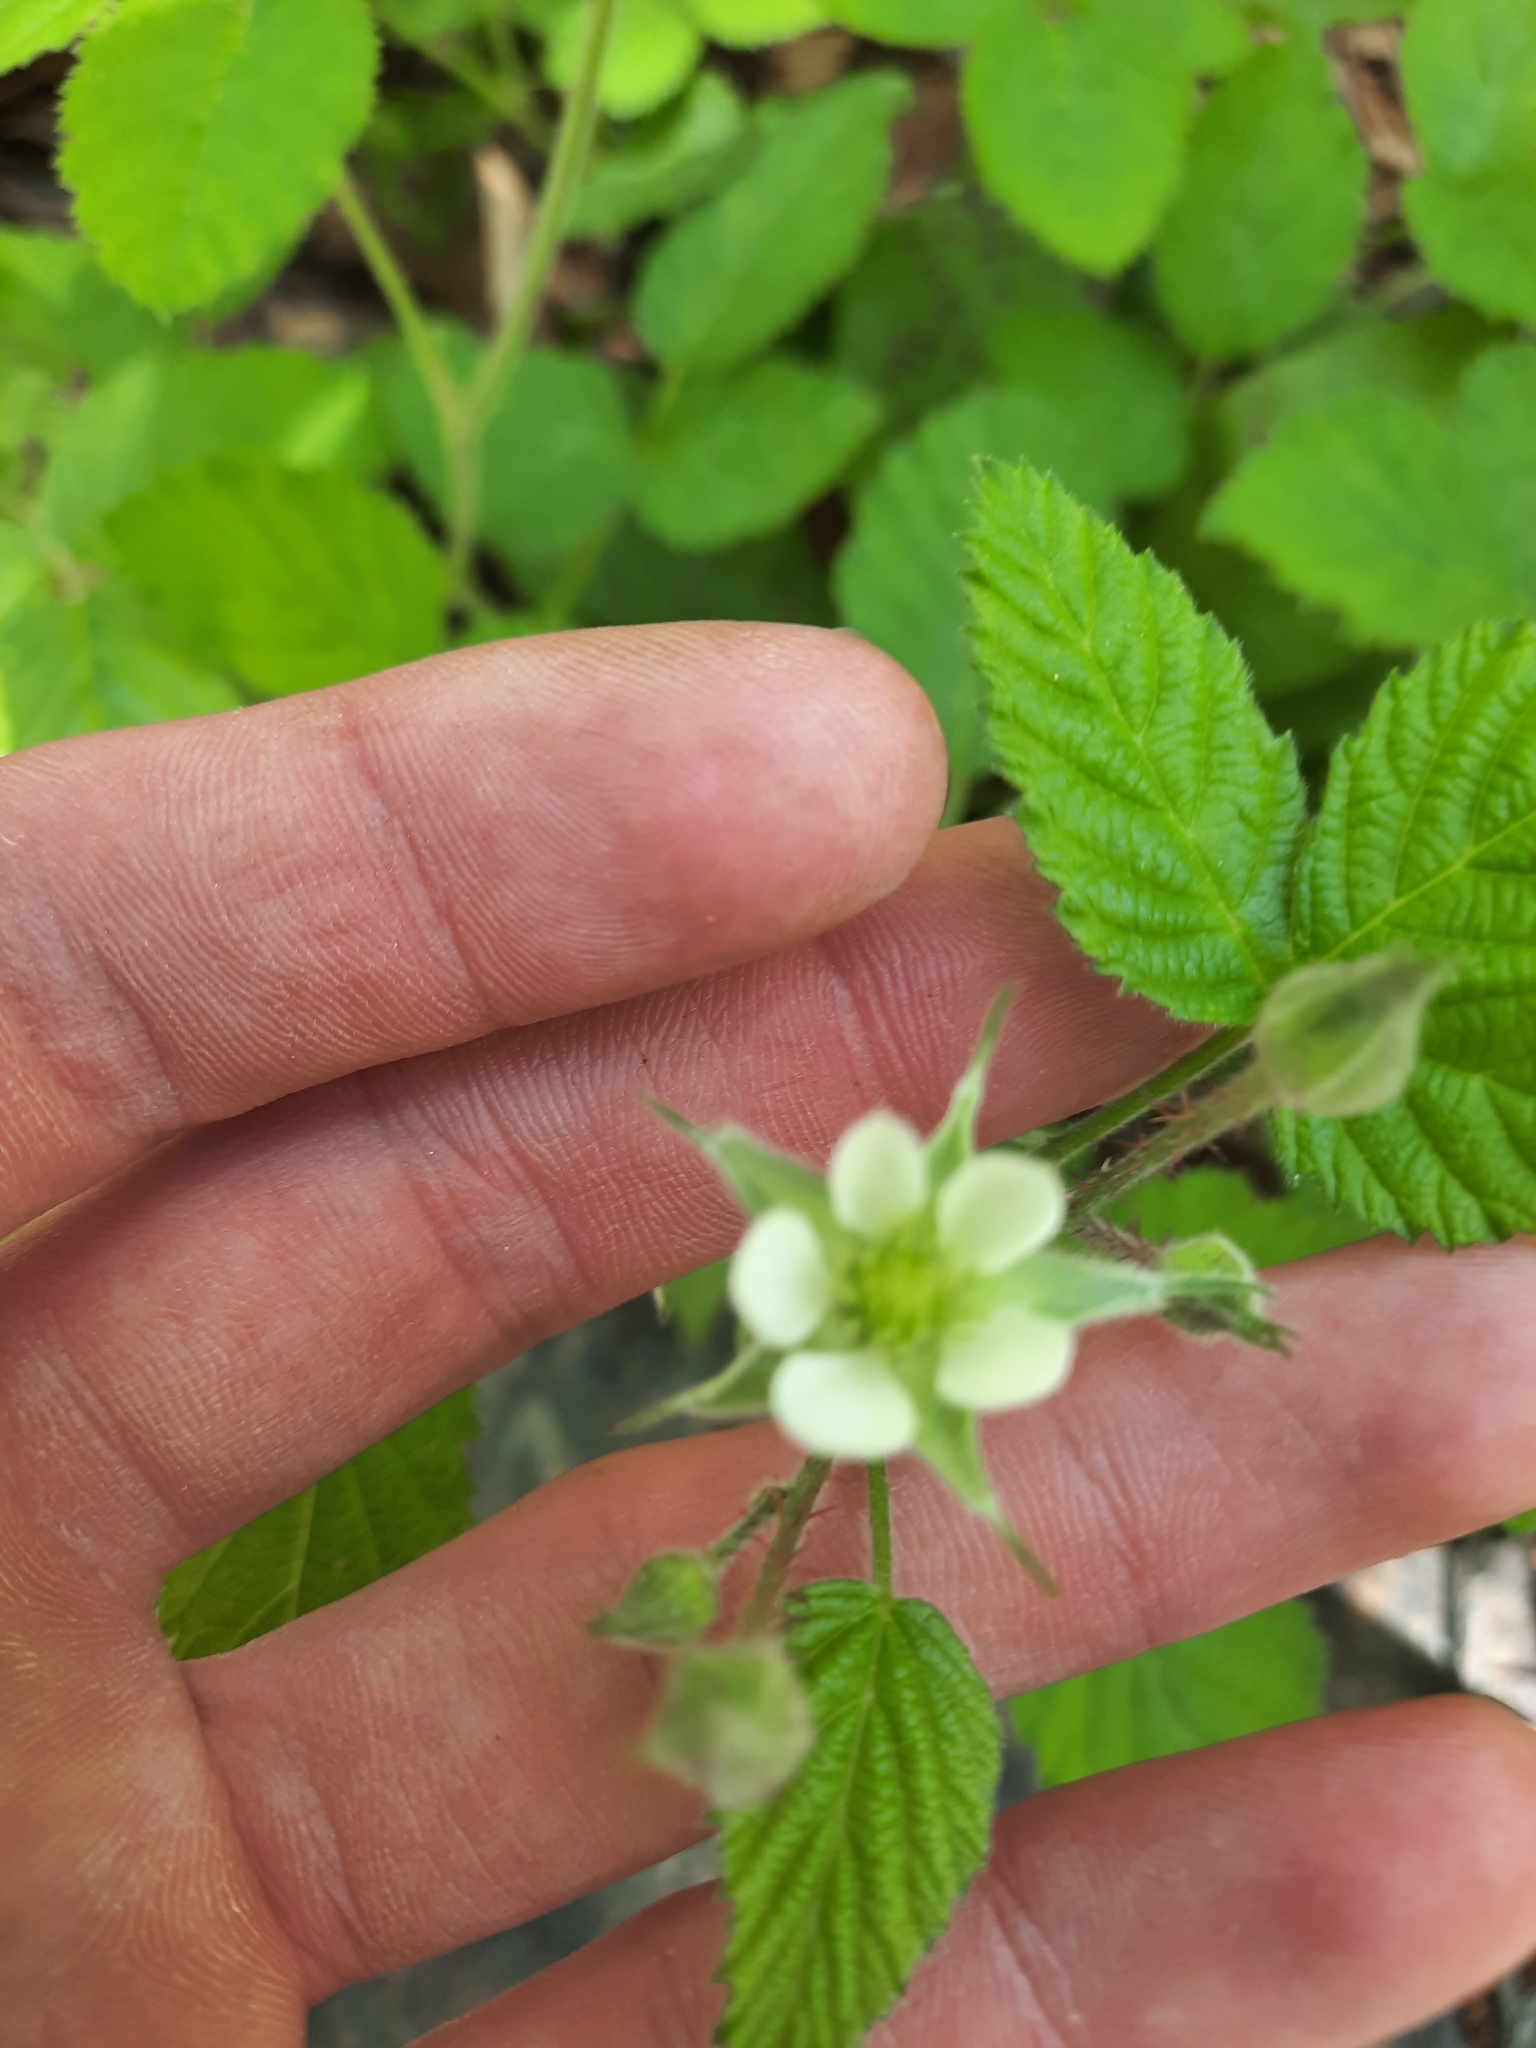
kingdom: Plantae
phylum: Tracheophyta
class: Magnoliopsida
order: Rosales
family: Rosaceae
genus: Rubus
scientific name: Rubus ursinus
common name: Pacific blackberry
